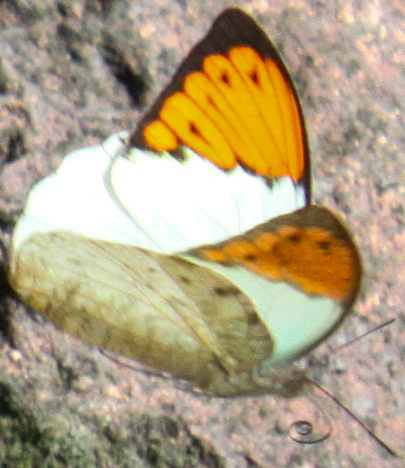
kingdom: Animalia
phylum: Arthropoda
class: Insecta
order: Lepidoptera
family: Pieridae
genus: Hebomoia
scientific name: Hebomoia glaucippe
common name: Great orange tip
